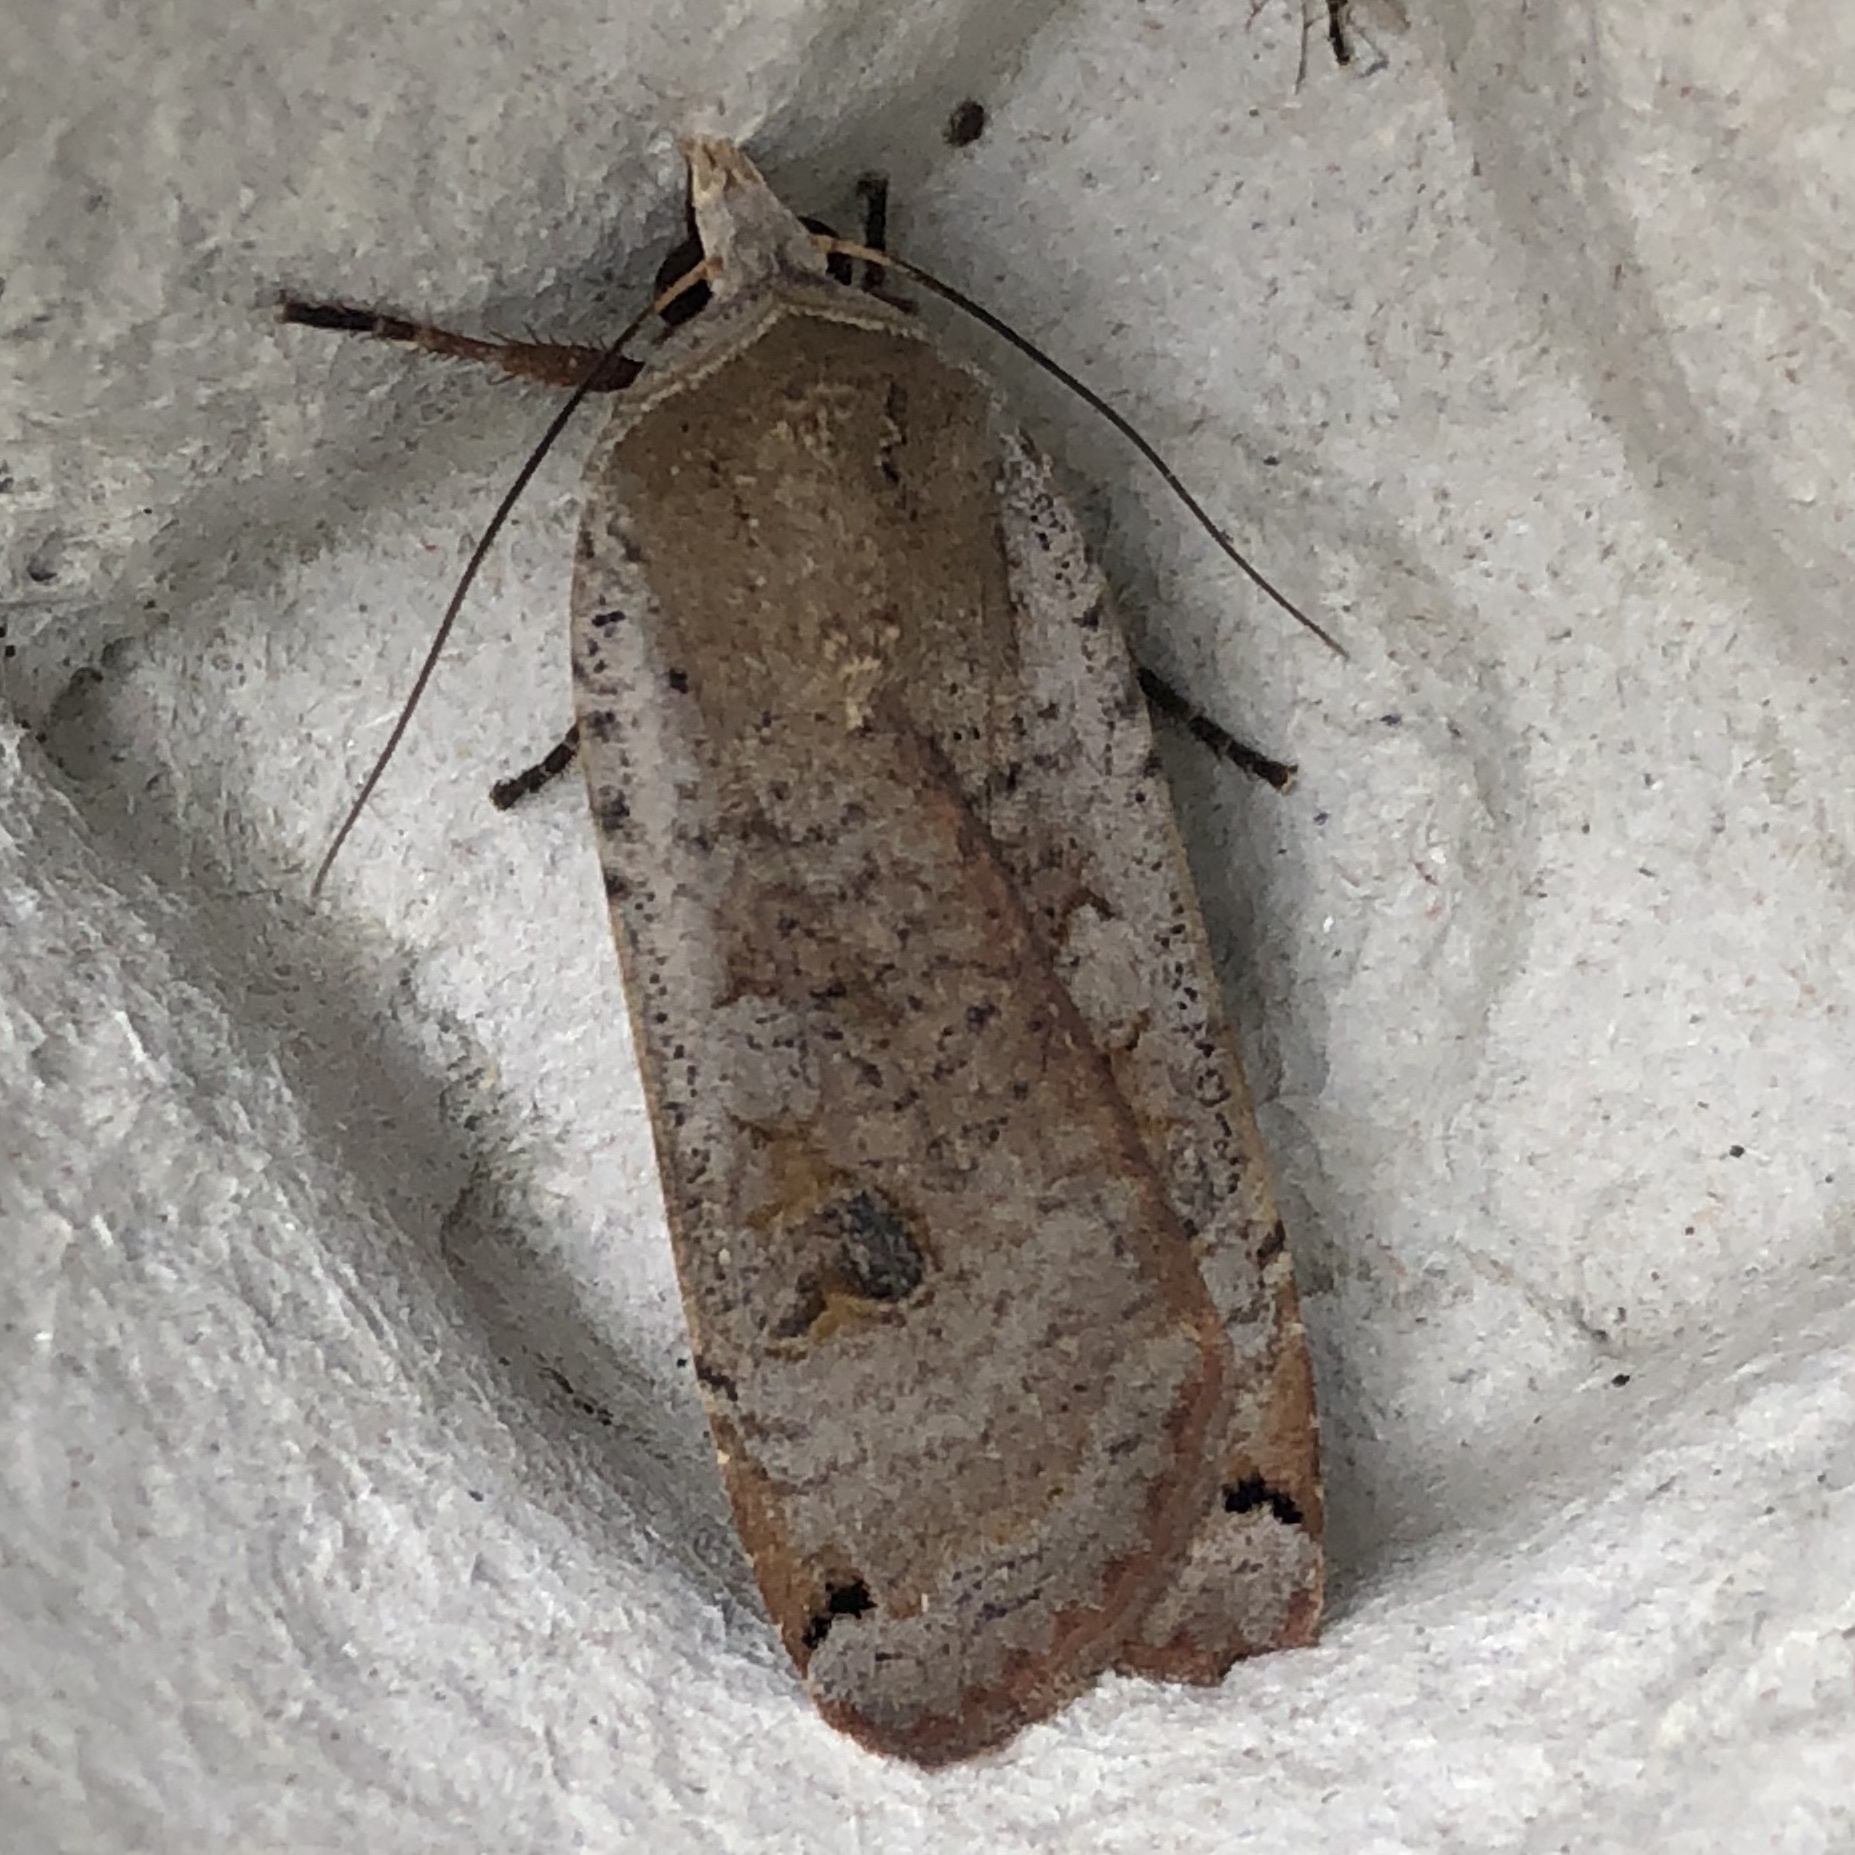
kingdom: Animalia
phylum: Arthropoda
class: Insecta
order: Lepidoptera
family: Noctuidae
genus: Noctua
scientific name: Noctua pronuba
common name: Large yellow underwing
